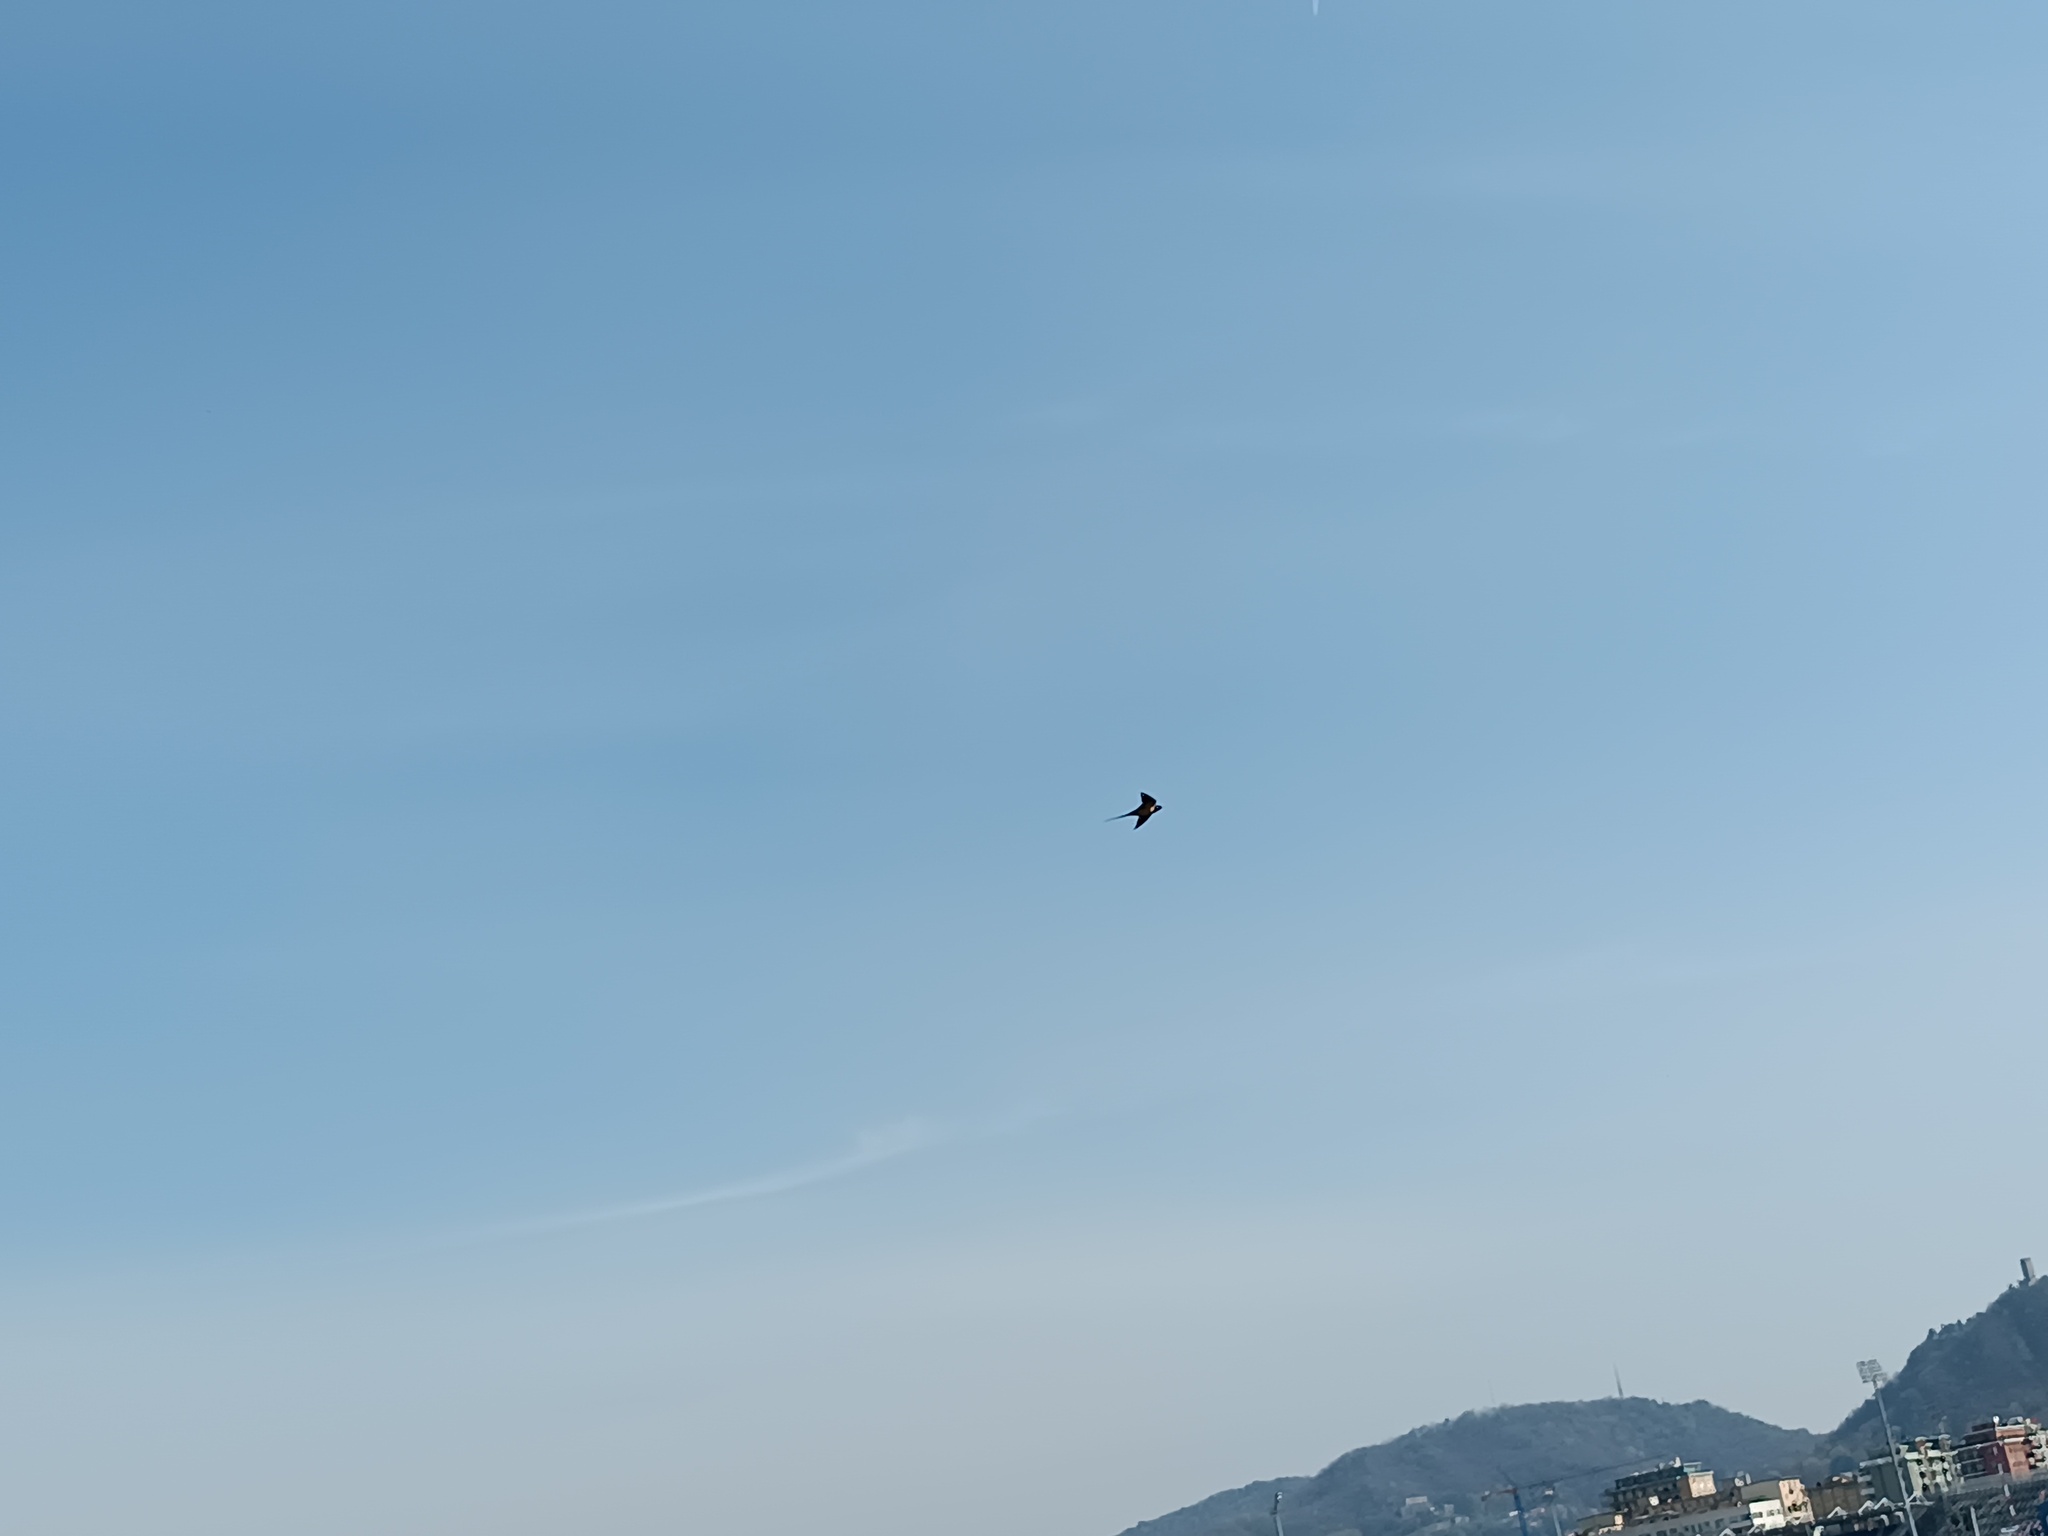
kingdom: Animalia
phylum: Chordata
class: Aves
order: Passeriformes
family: Hirundinidae
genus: Hirundo
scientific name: Hirundo rustica
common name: Barn swallow
